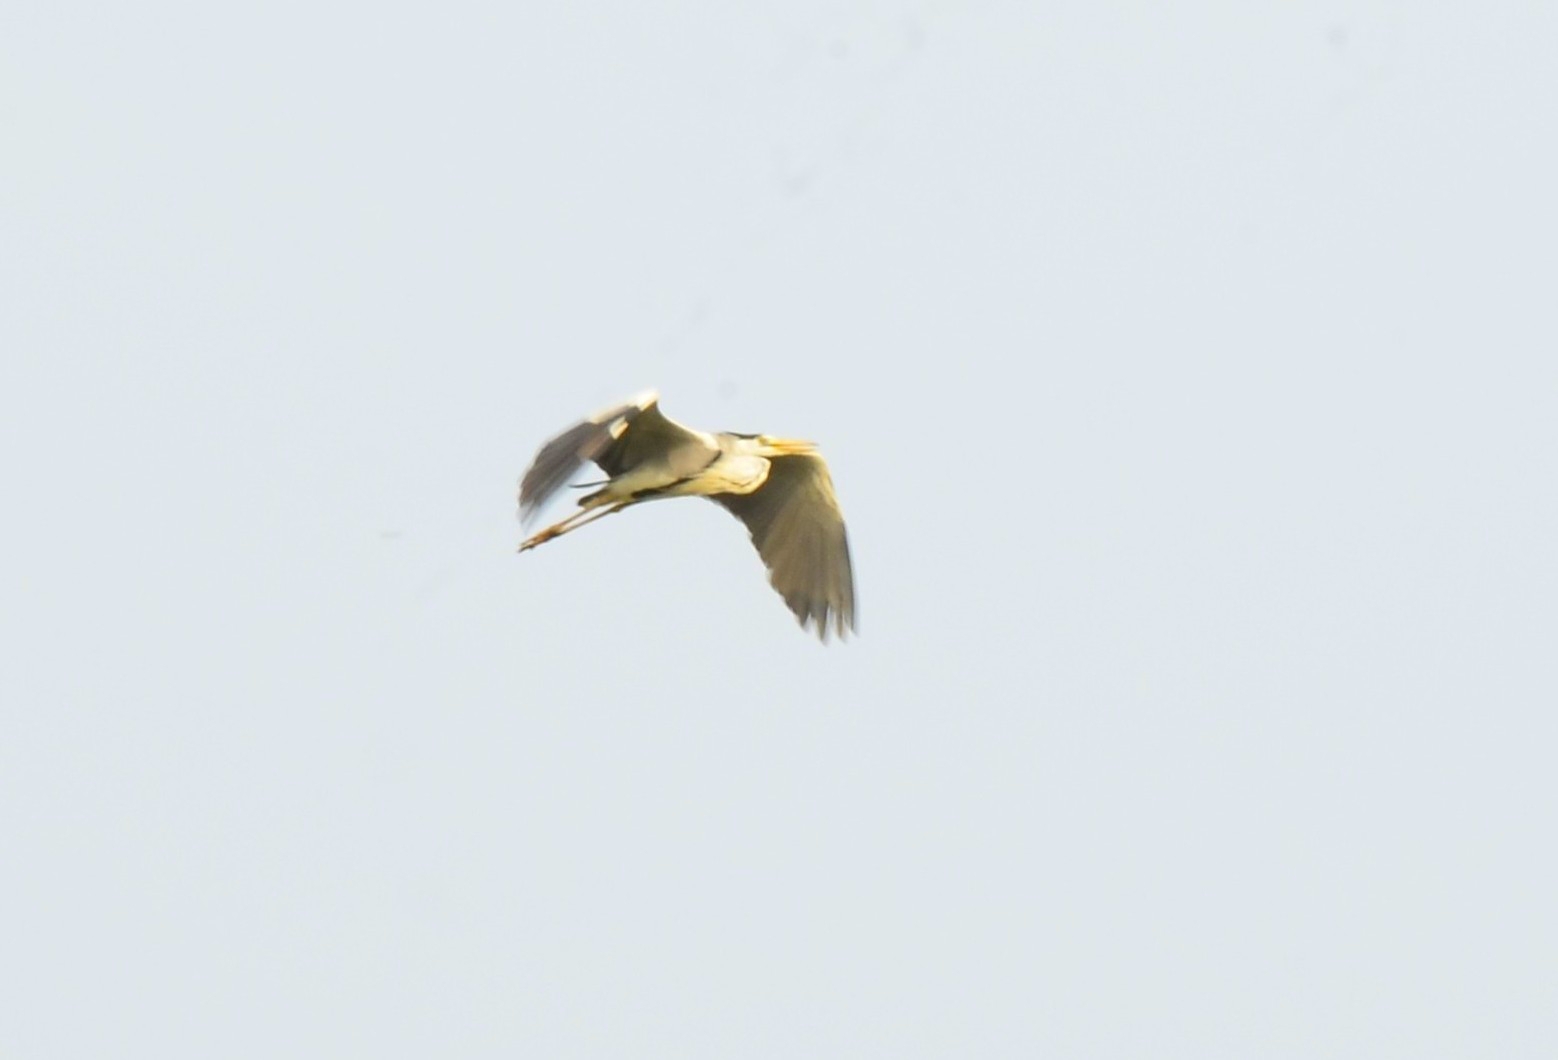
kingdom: Animalia
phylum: Chordata
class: Aves
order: Pelecaniformes
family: Ardeidae
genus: Ardea
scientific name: Ardea cinerea
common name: Grey heron
